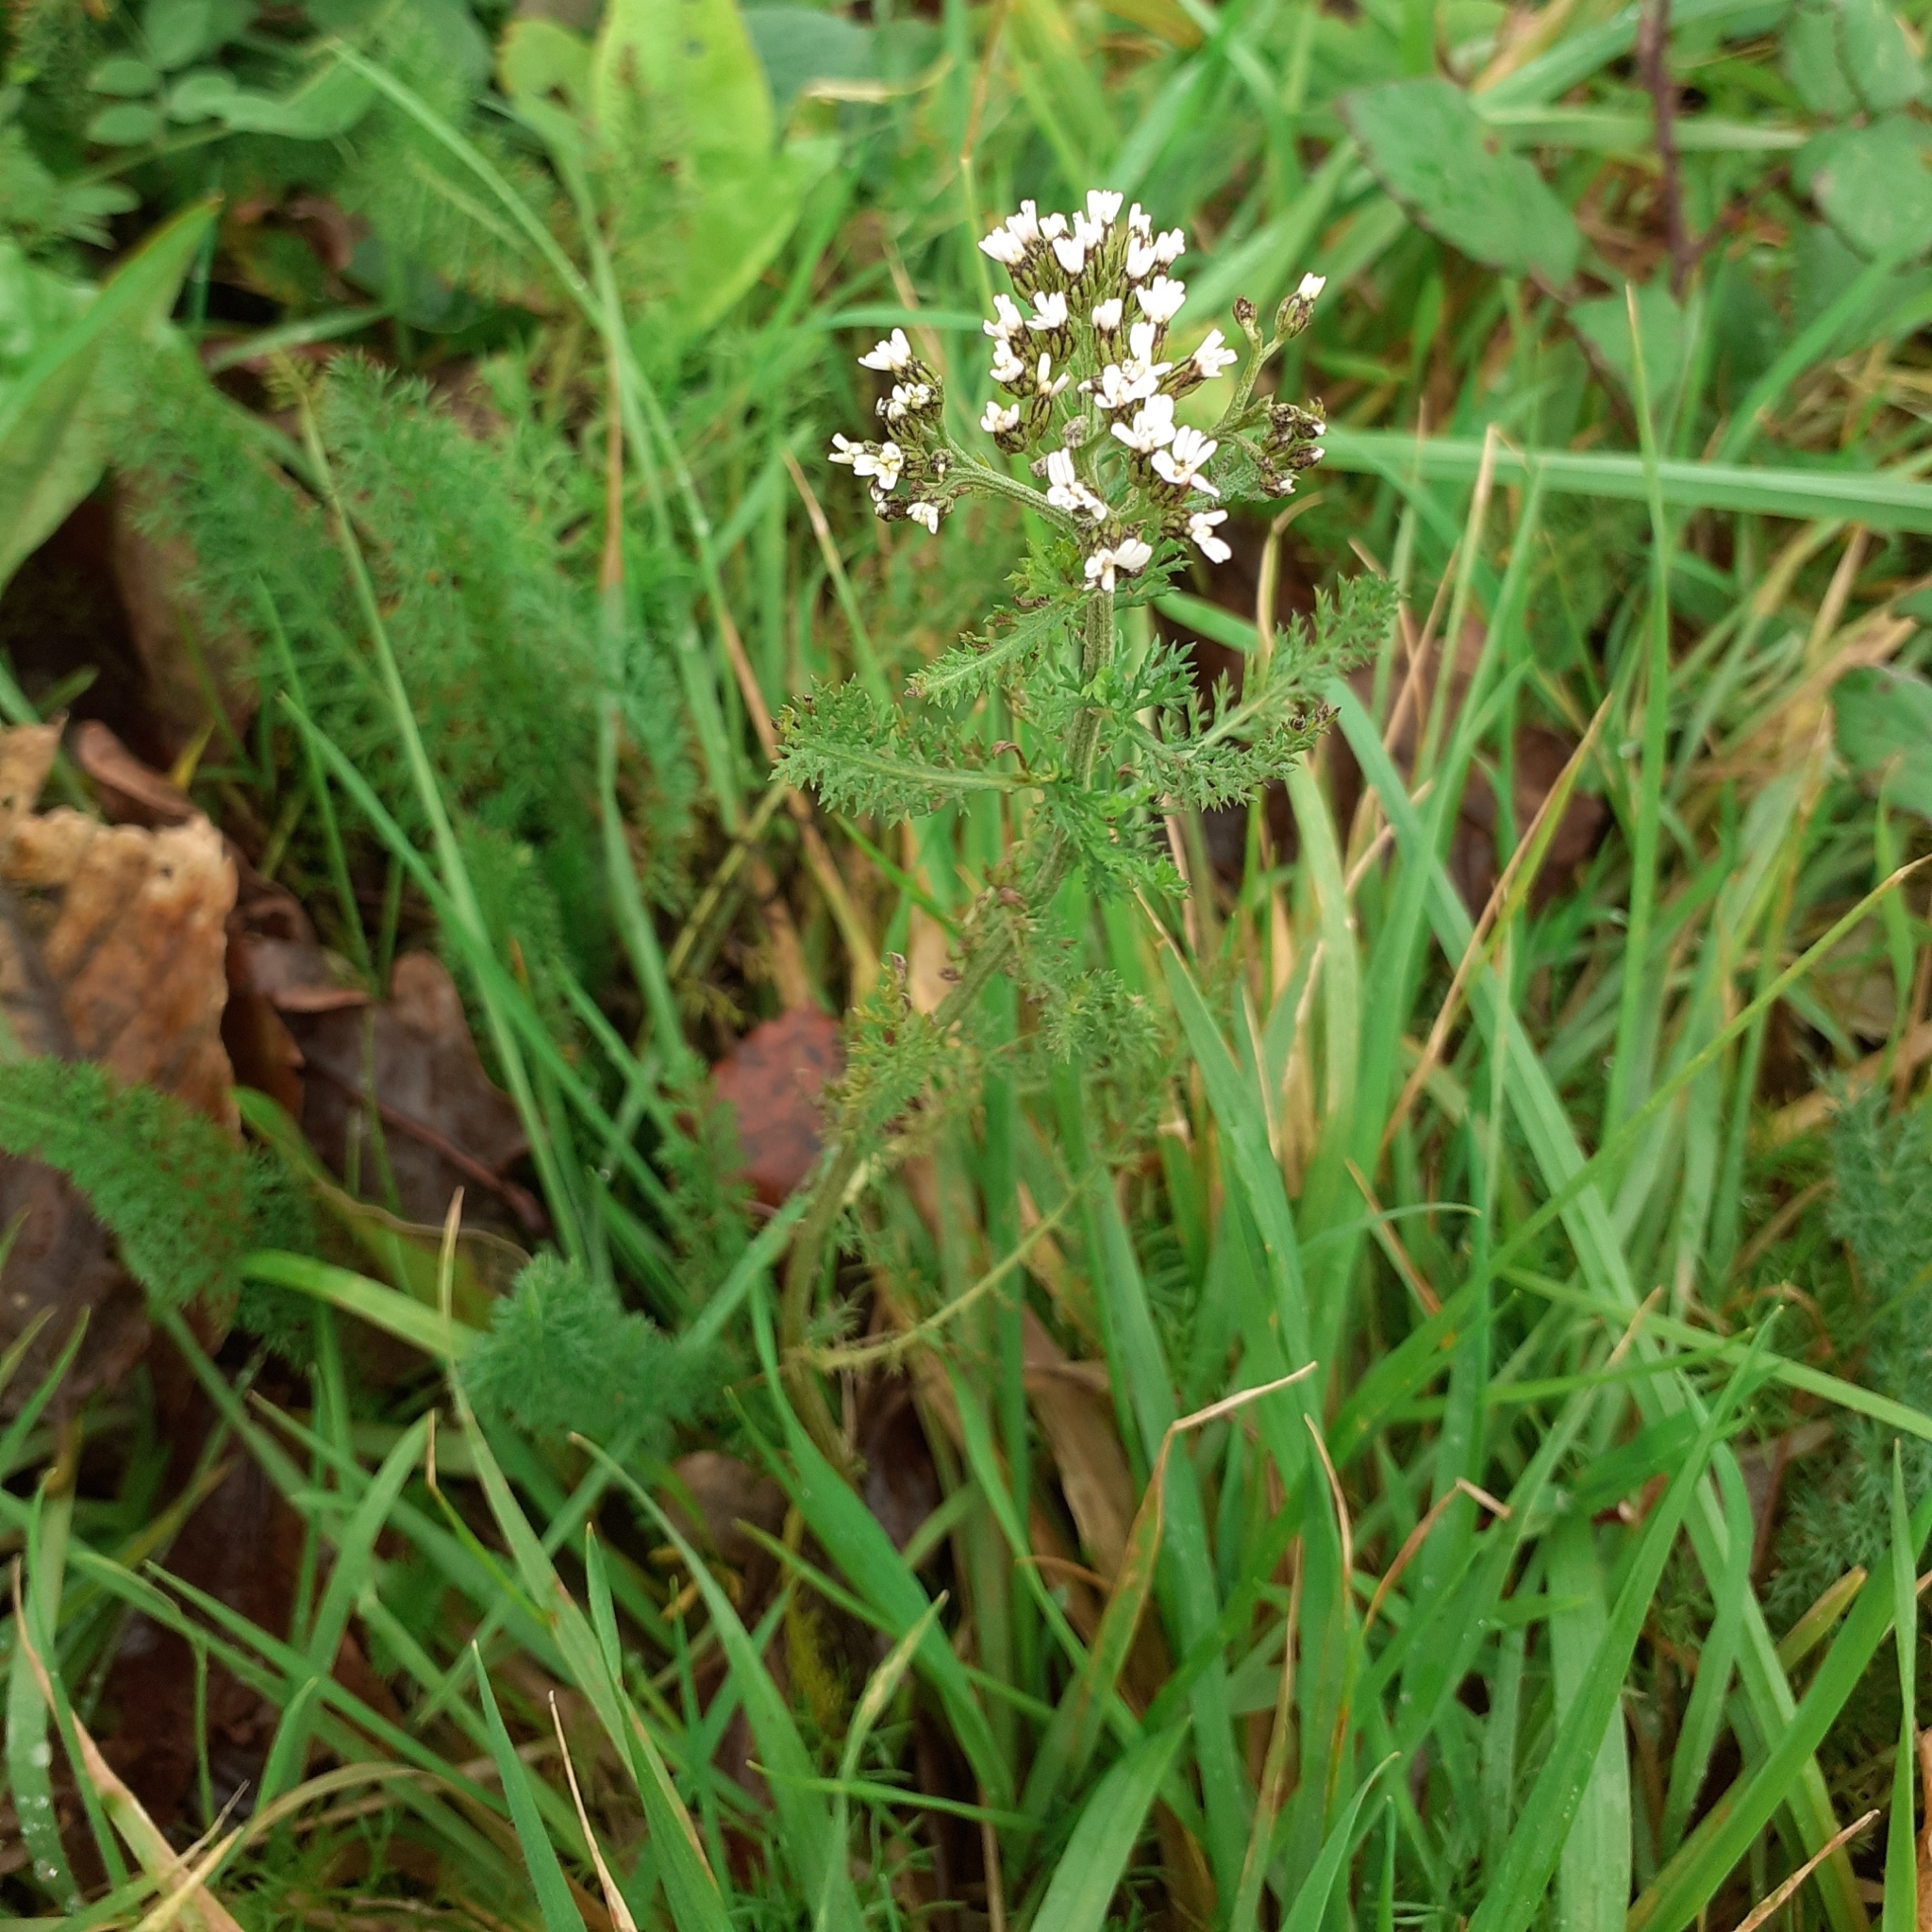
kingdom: Plantae
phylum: Tracheophyta
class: Magnoliopsida
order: Asterales
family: Asteraceae
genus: Achillea
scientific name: Achillea millefolium
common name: Yarrow
